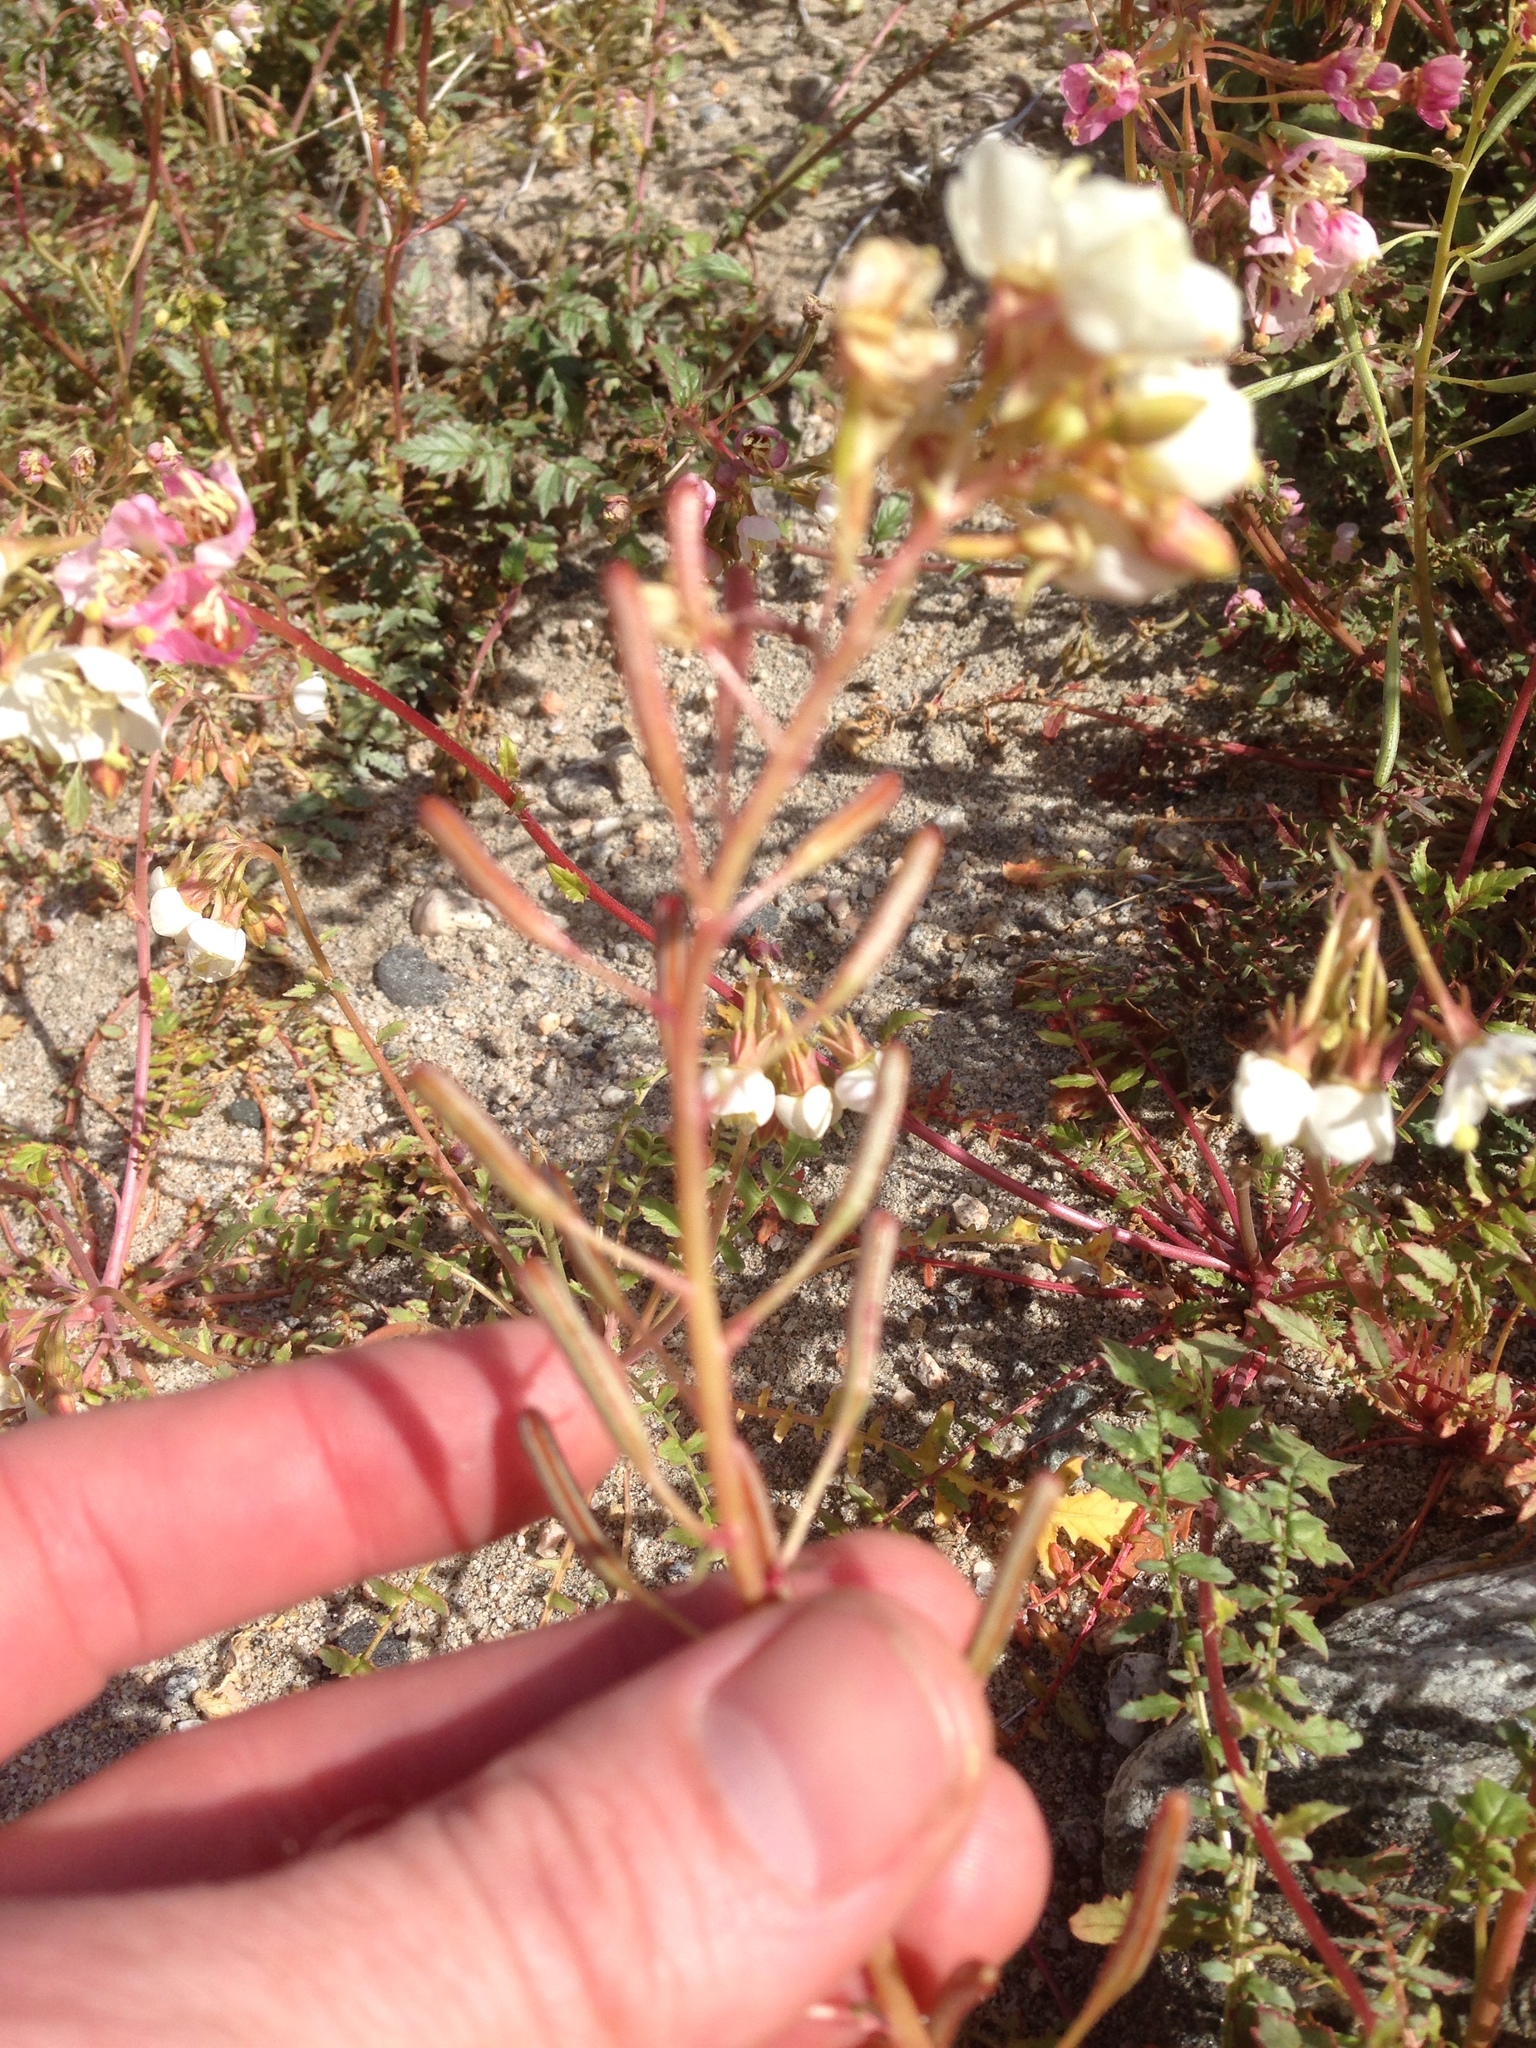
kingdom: Plantae
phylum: Tracheophyta
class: Magnoliopsida
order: Myrtales
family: Onagraceae
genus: Chylismia
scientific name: Chylismia claviformis
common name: Browneyes
